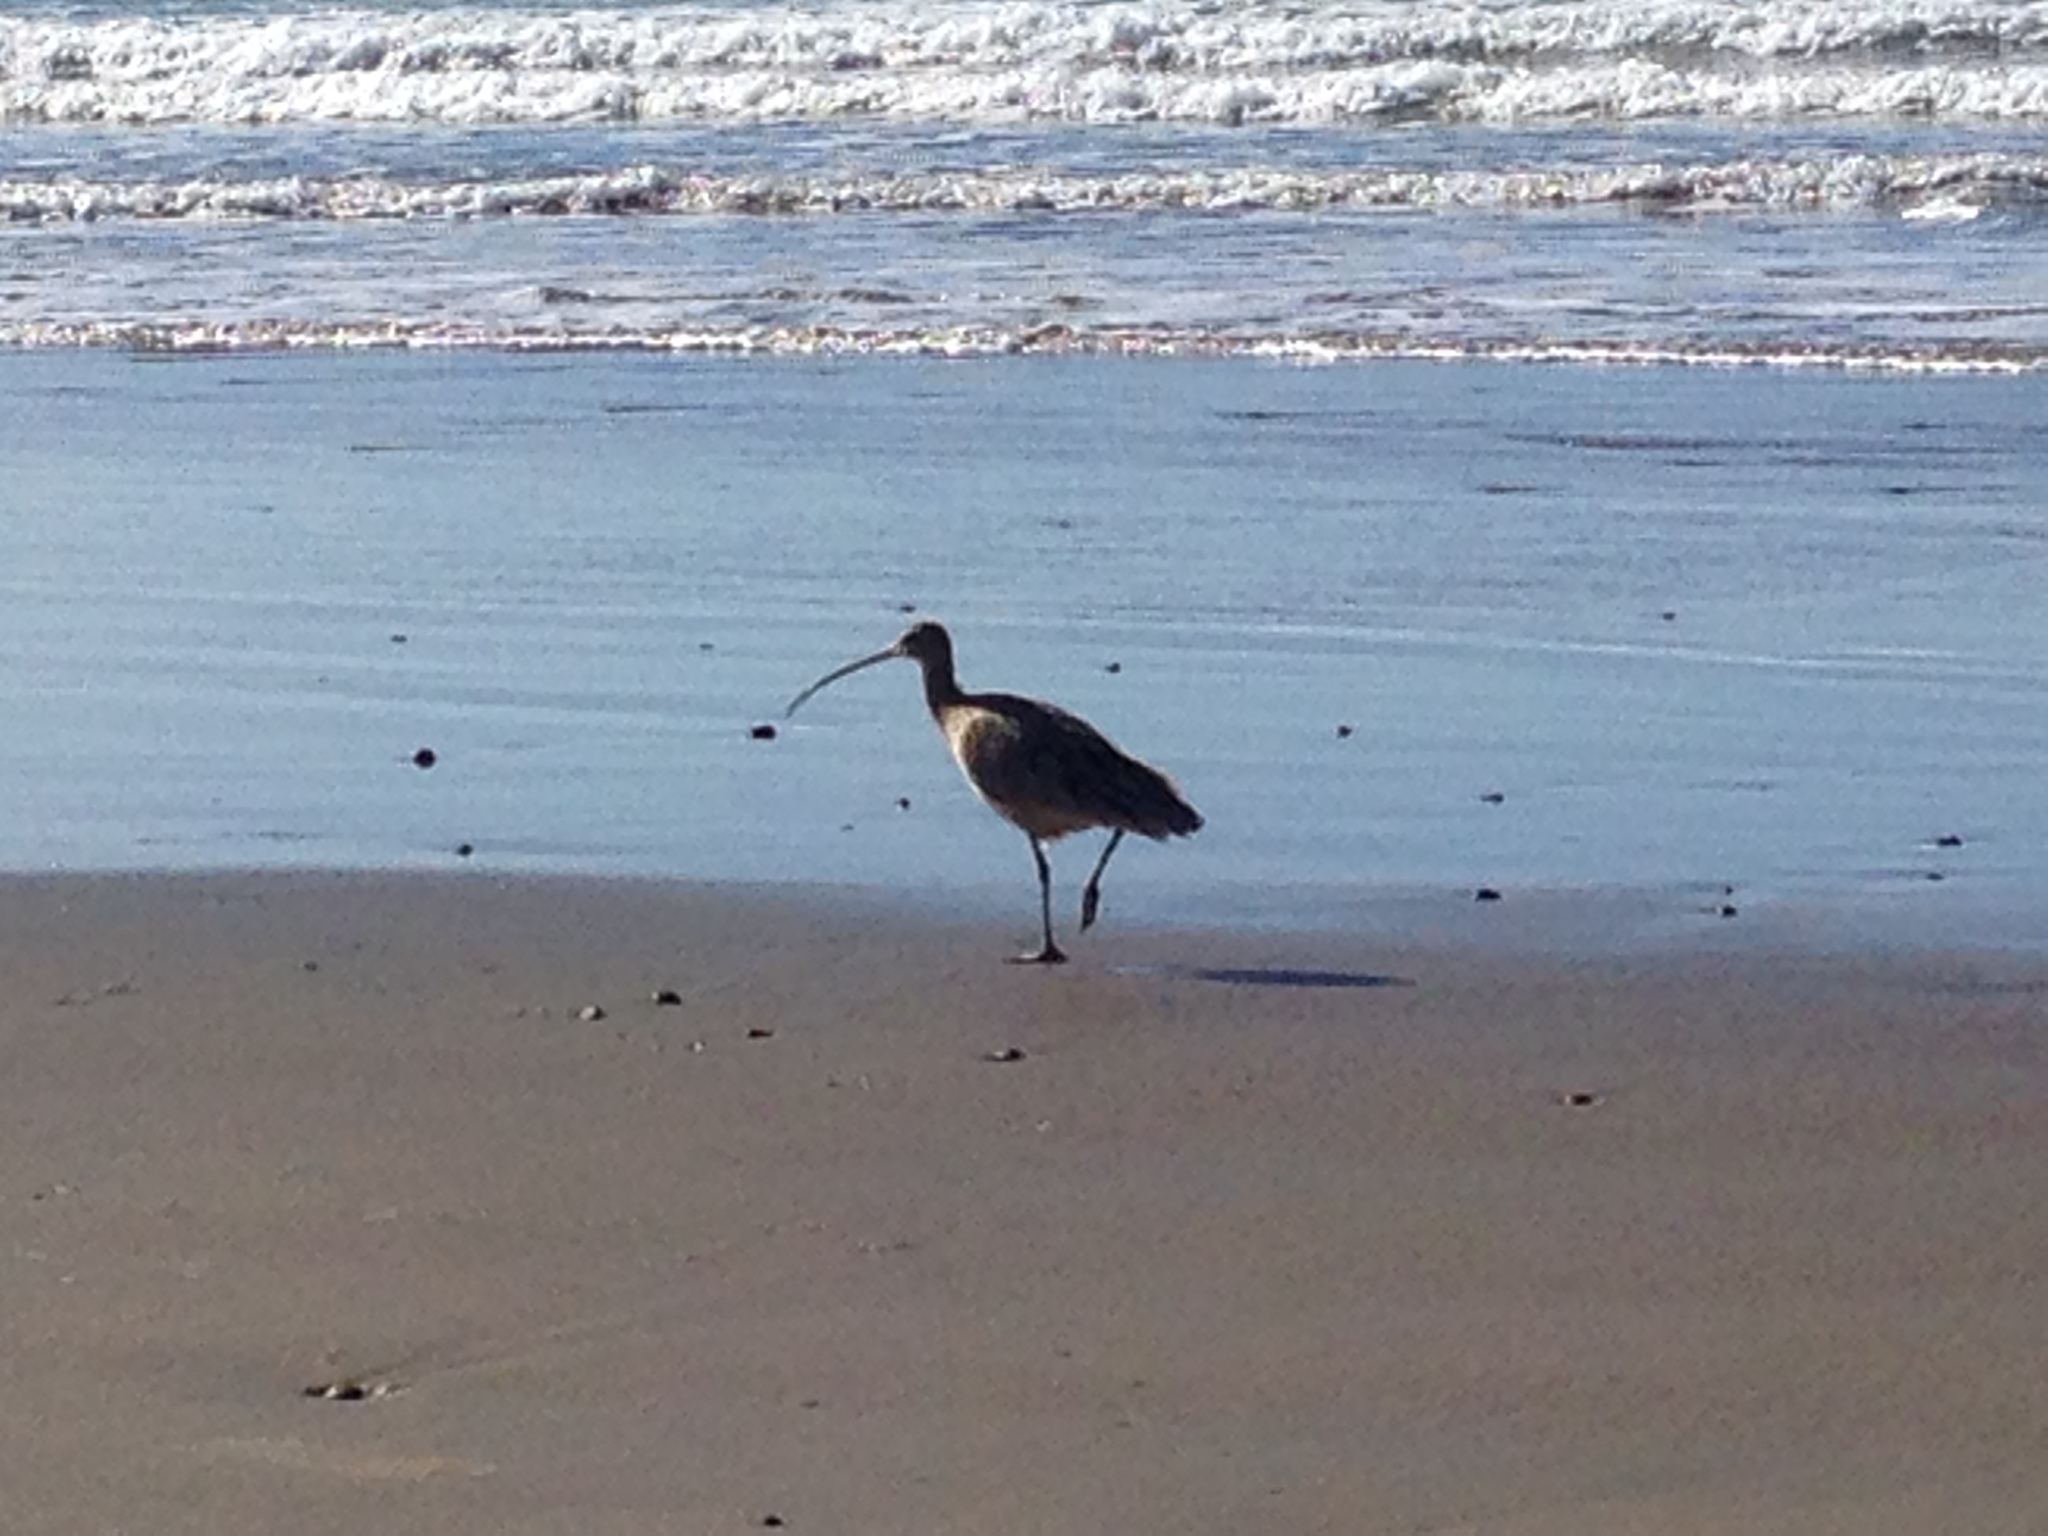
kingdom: Animalia
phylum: Chordata
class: Aves
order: Charadriiformes
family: Scolopacidae
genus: Numenius
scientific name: Numenius americanus
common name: Long-billed curlew
